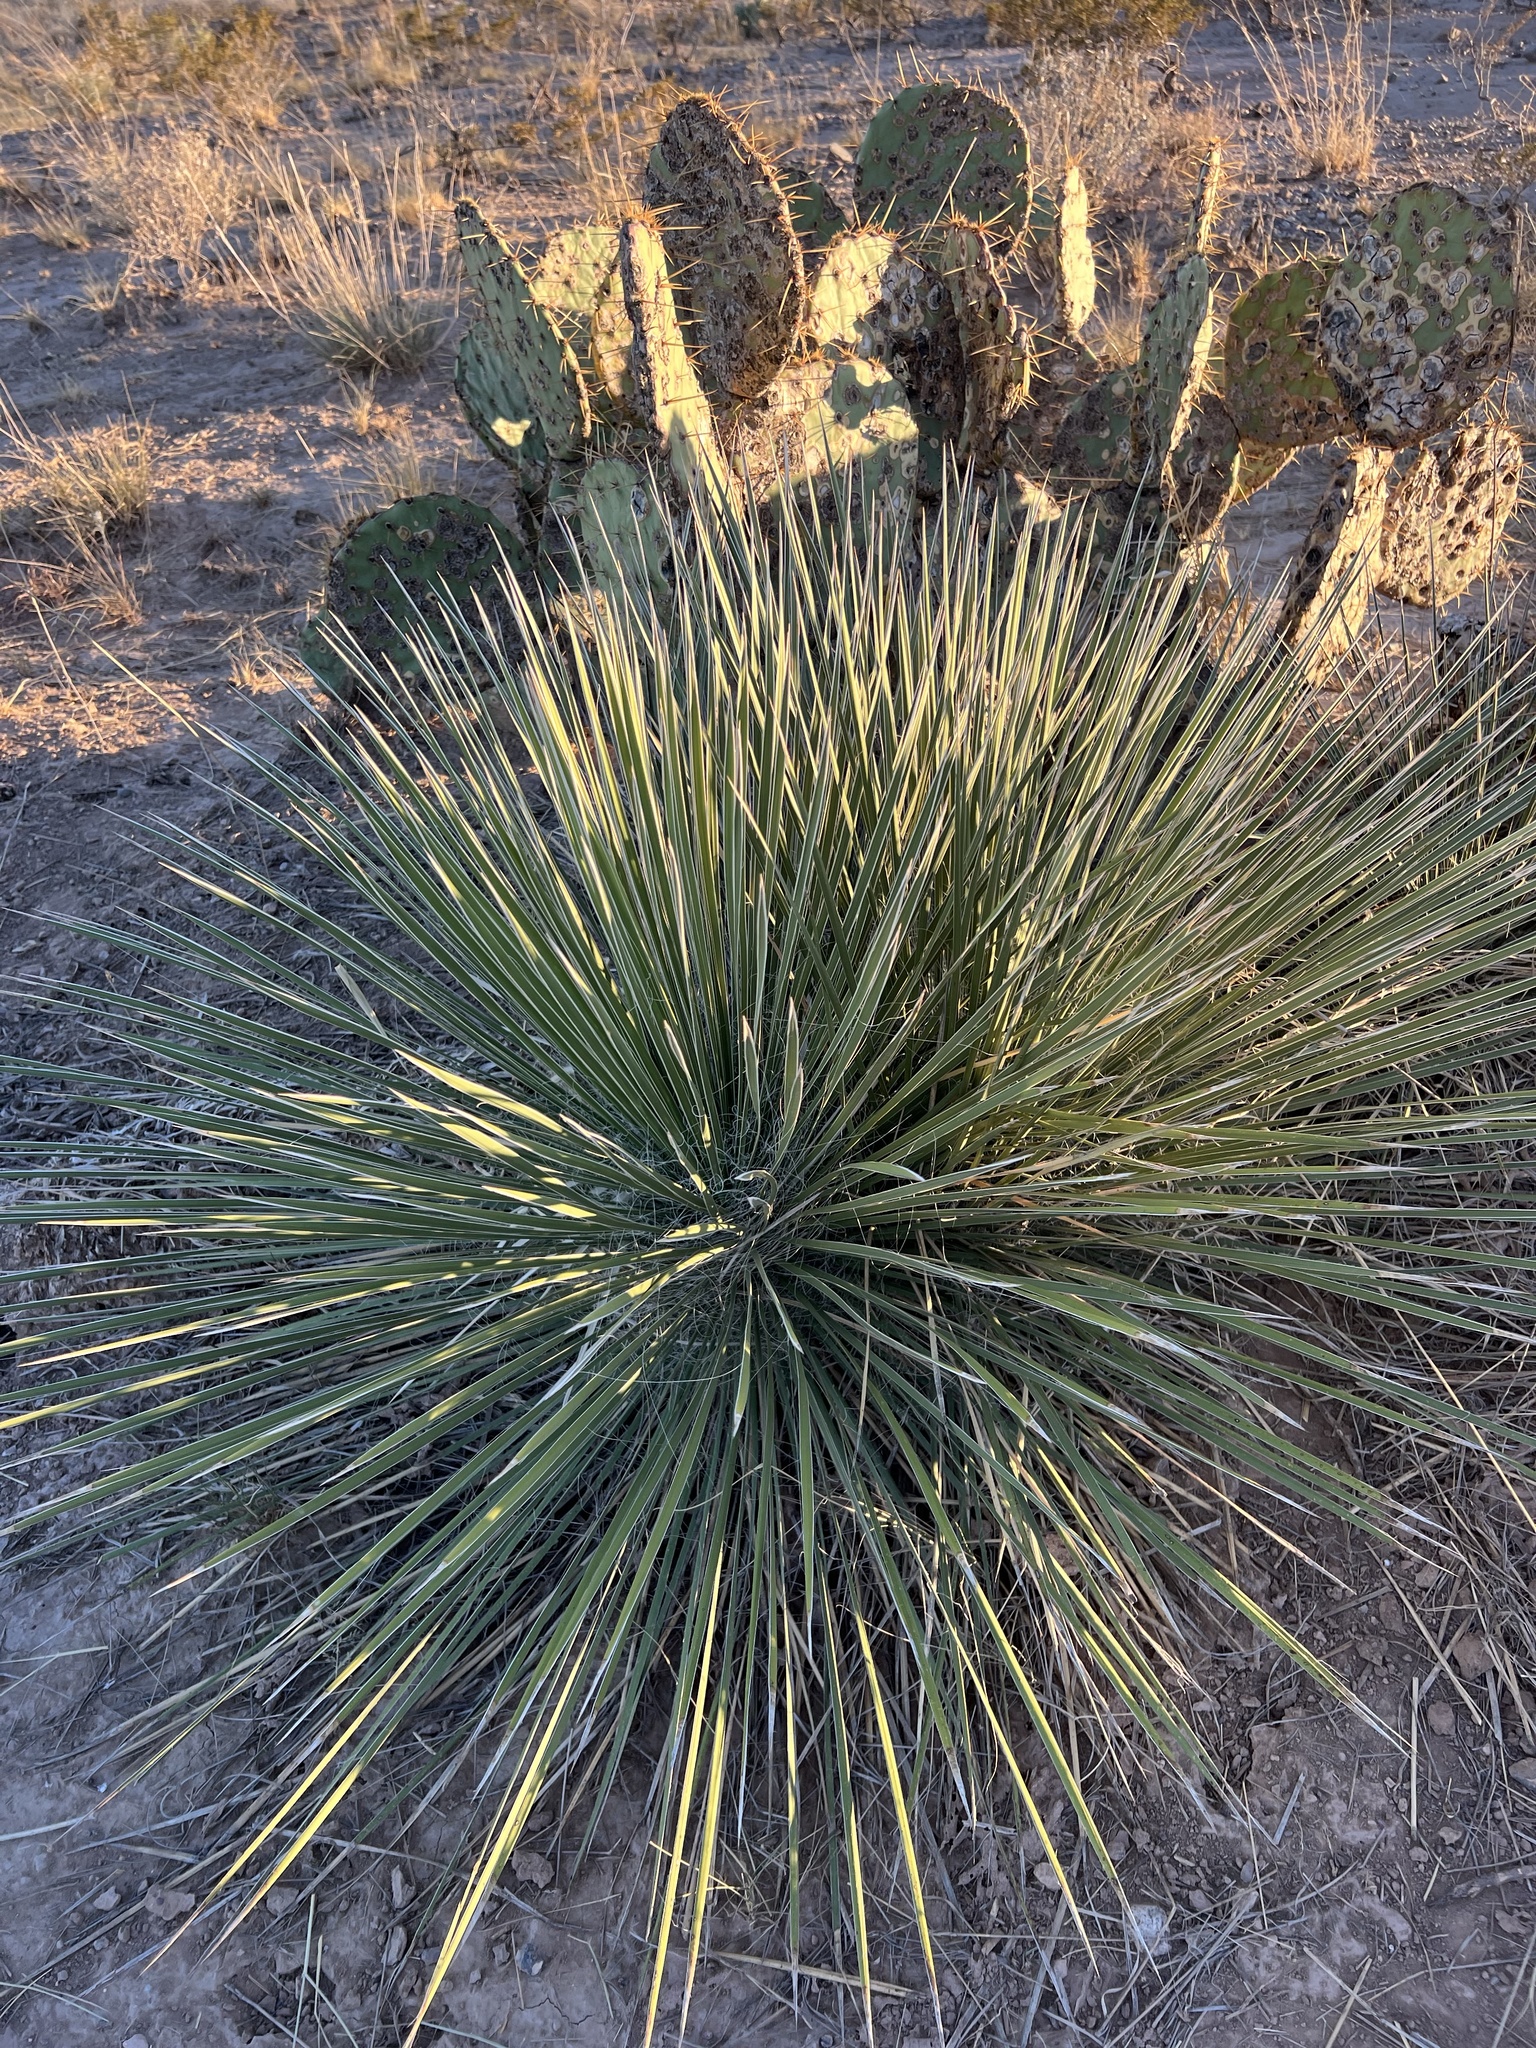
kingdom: Plantae
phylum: Tracheophyta
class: Liliopsida
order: Asparagales
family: Asparagaceae
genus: Yucca
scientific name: Yucca elata
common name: Palmella
